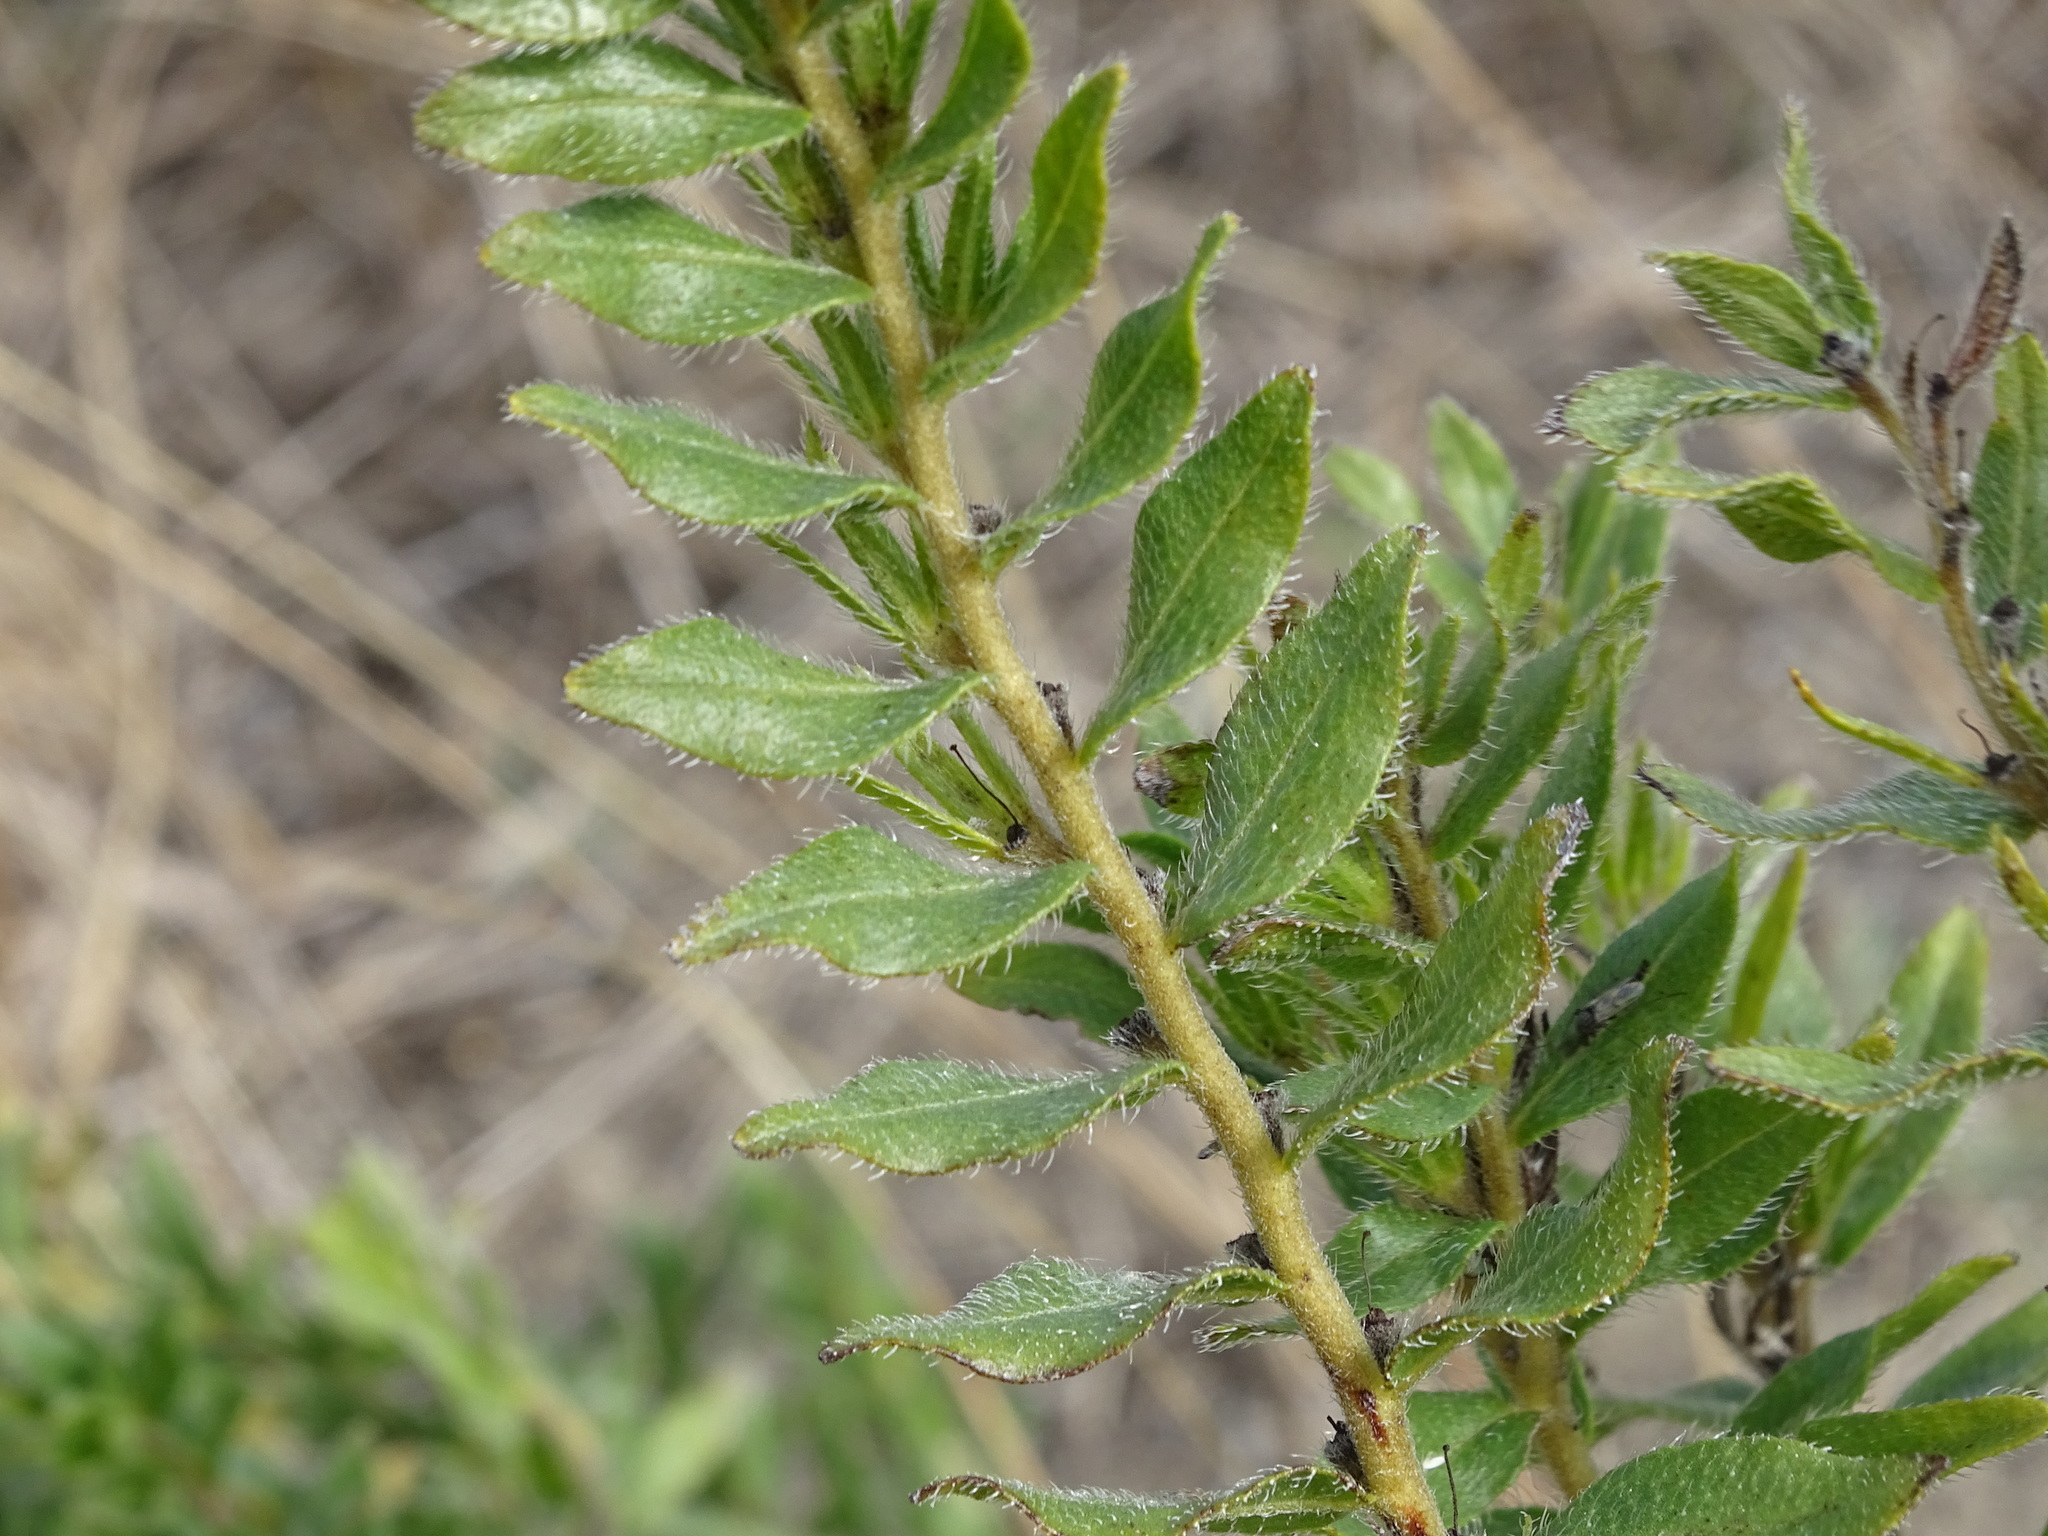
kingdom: Plantae
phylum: Tracheophyta
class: Magnoliopsida
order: Boraginales
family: Boraginaceae
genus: Lithospermum
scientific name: Lithospermum caroliniense
